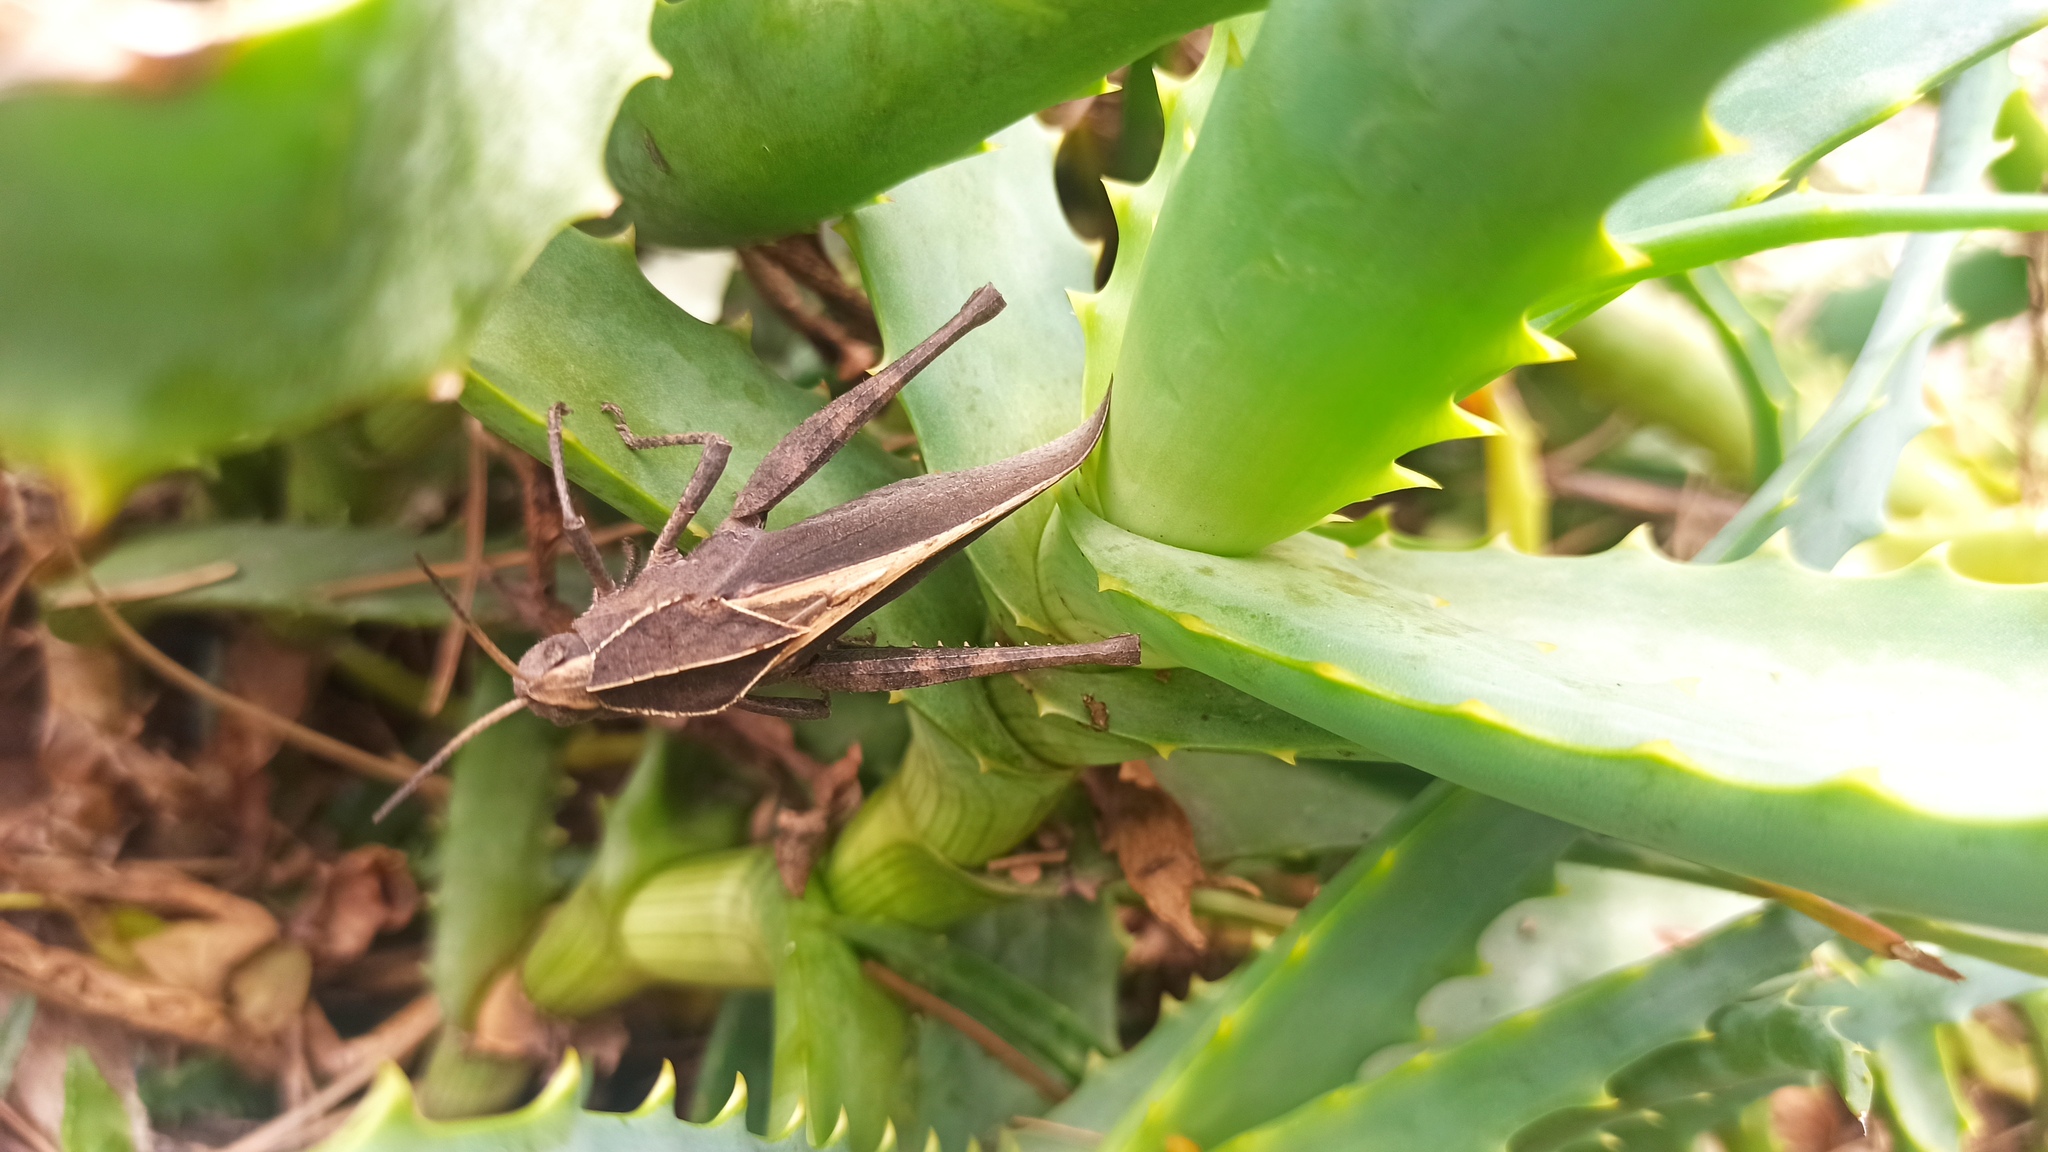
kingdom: Animalia
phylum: Arthropoda
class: Insecta
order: Orthoptera
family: Romaleidae
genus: Xyleus
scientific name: Xyleus discoideus
